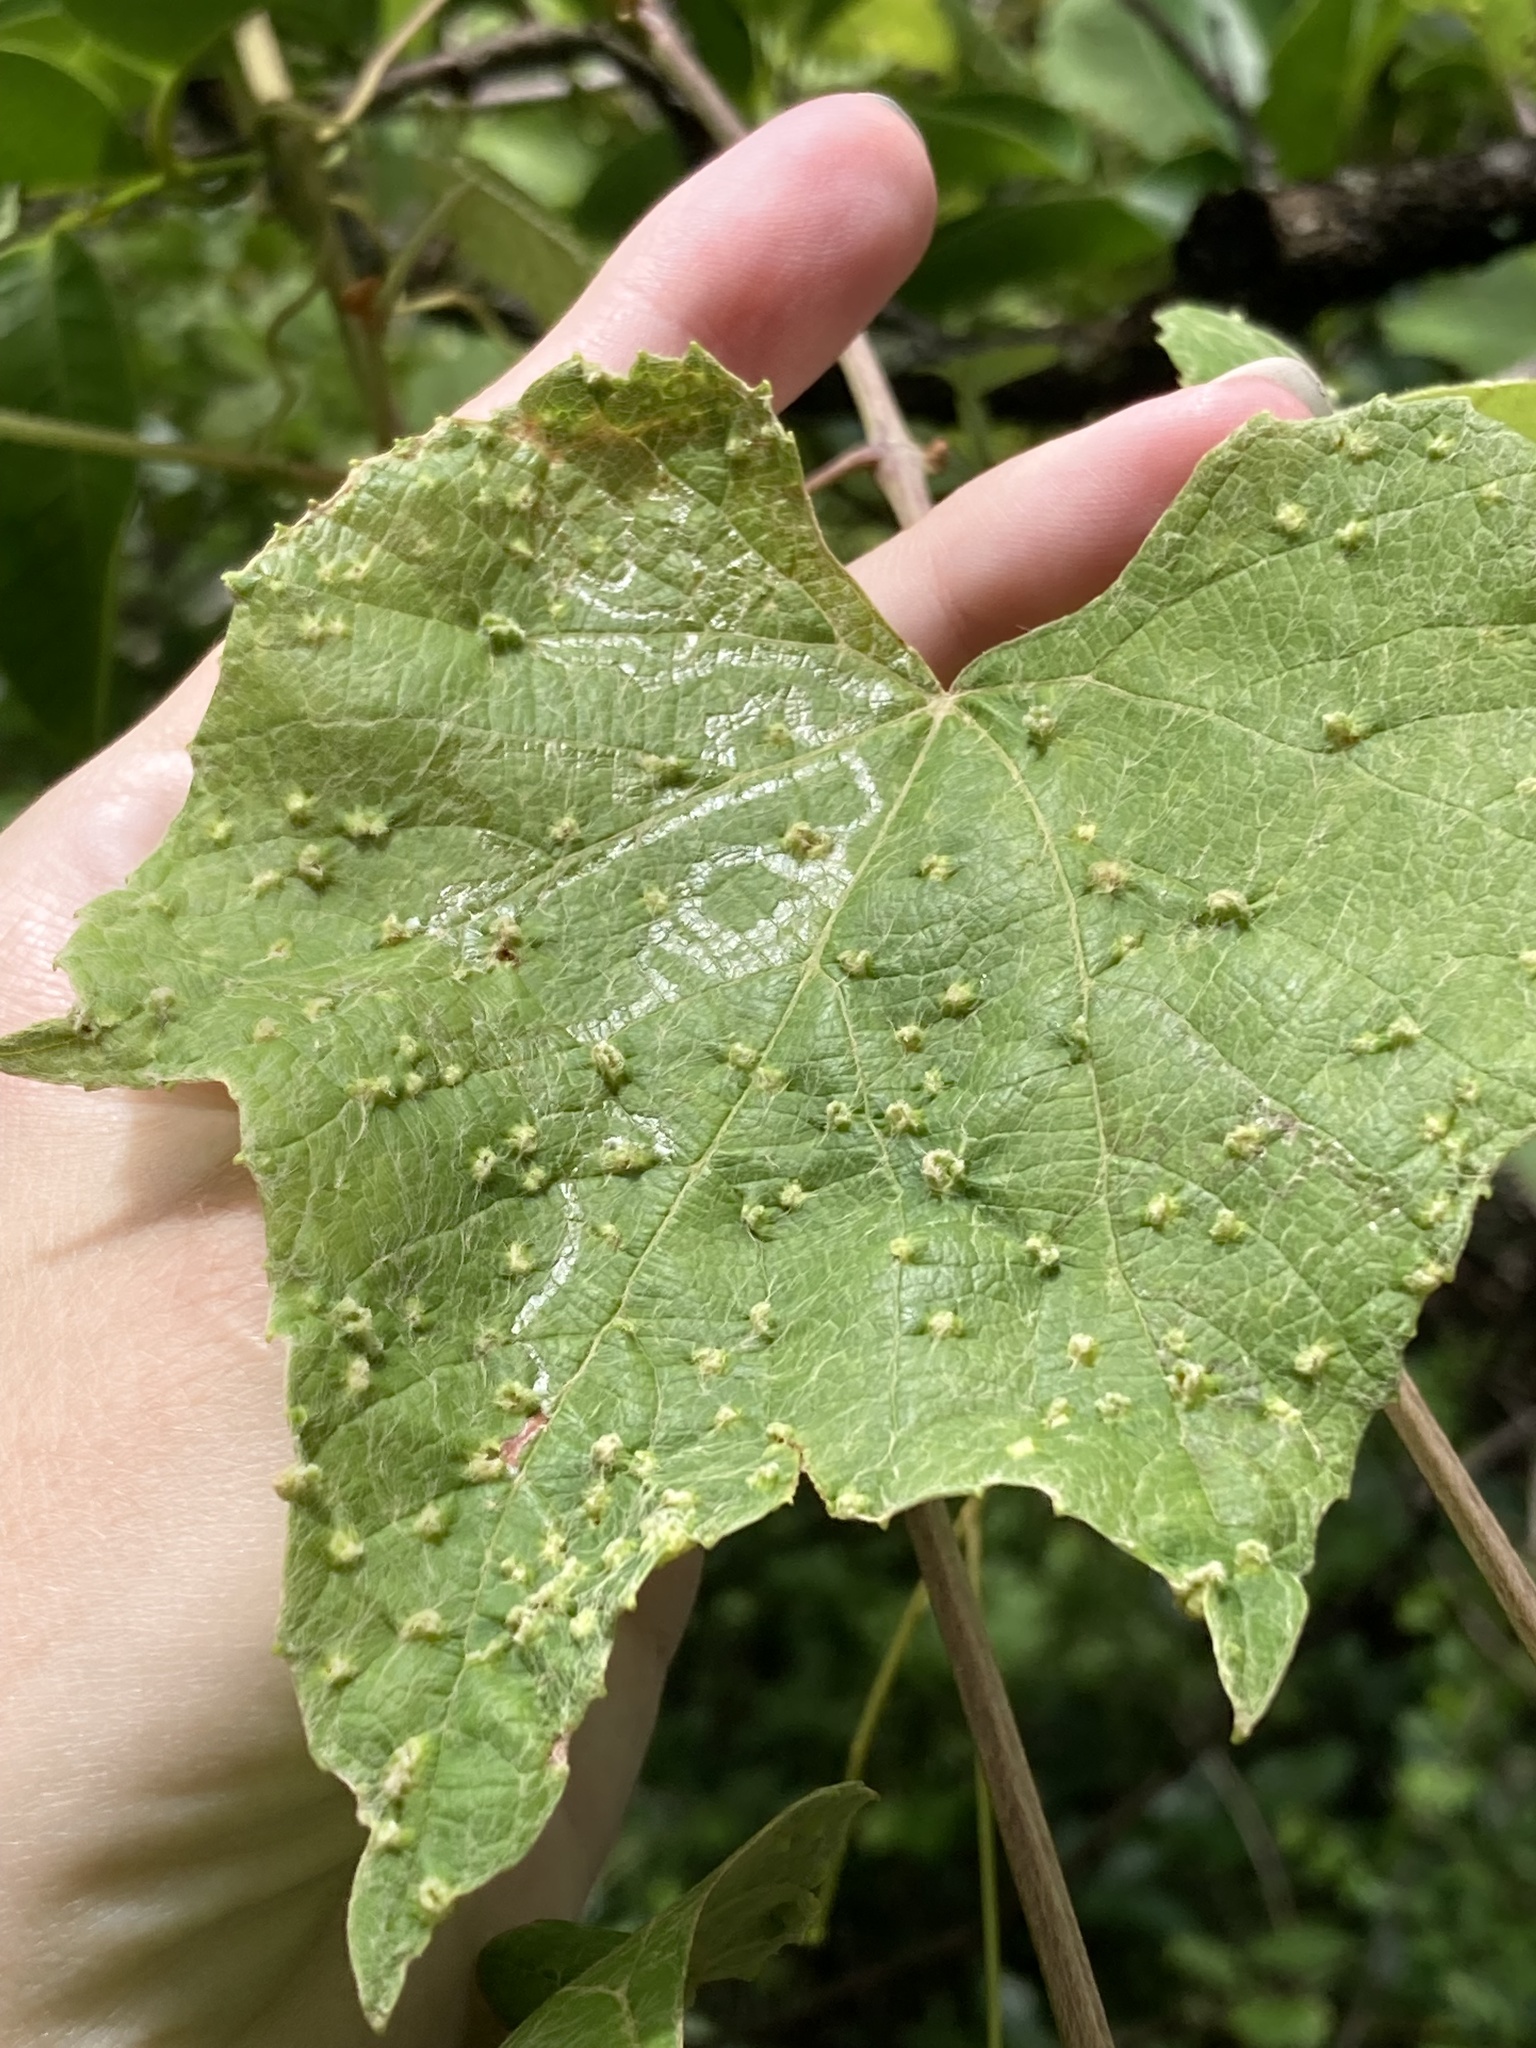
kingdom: Animalia
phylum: Arthropoda
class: Insecta
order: Hemiptera
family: Phylloxeridae
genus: Daktulosphaira
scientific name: Daktulosphaira vitifoliae
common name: Grape phylloxera
